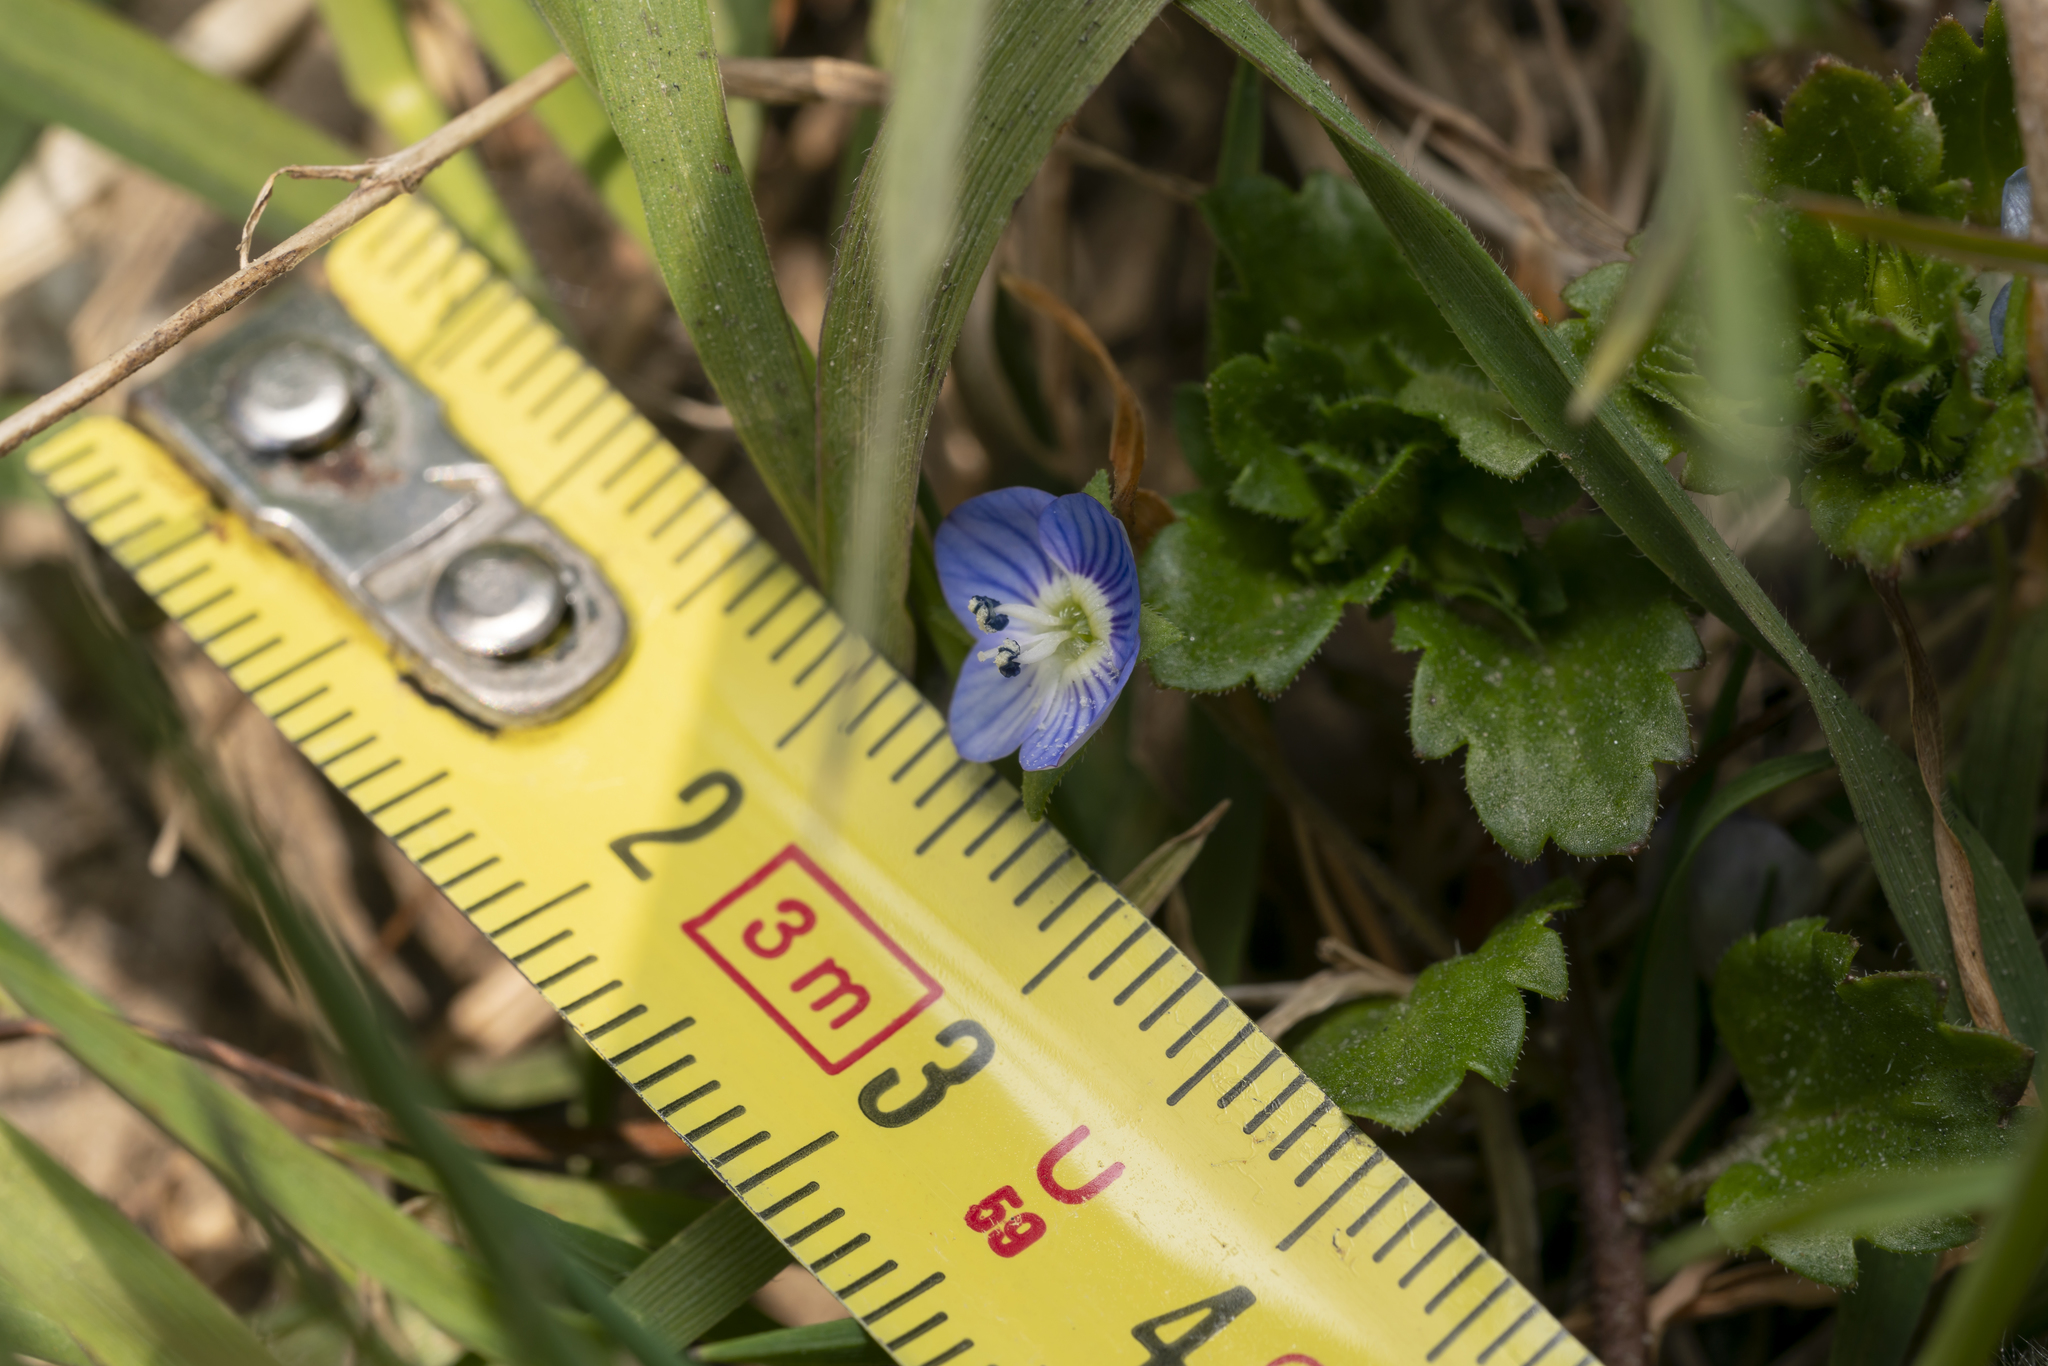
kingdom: Plantae
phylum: Tracheophyta
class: Magnoliopsida
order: Lamiales
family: Plantaginaceae
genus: Veronica
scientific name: Veronica persica
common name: Common field-speedwell
